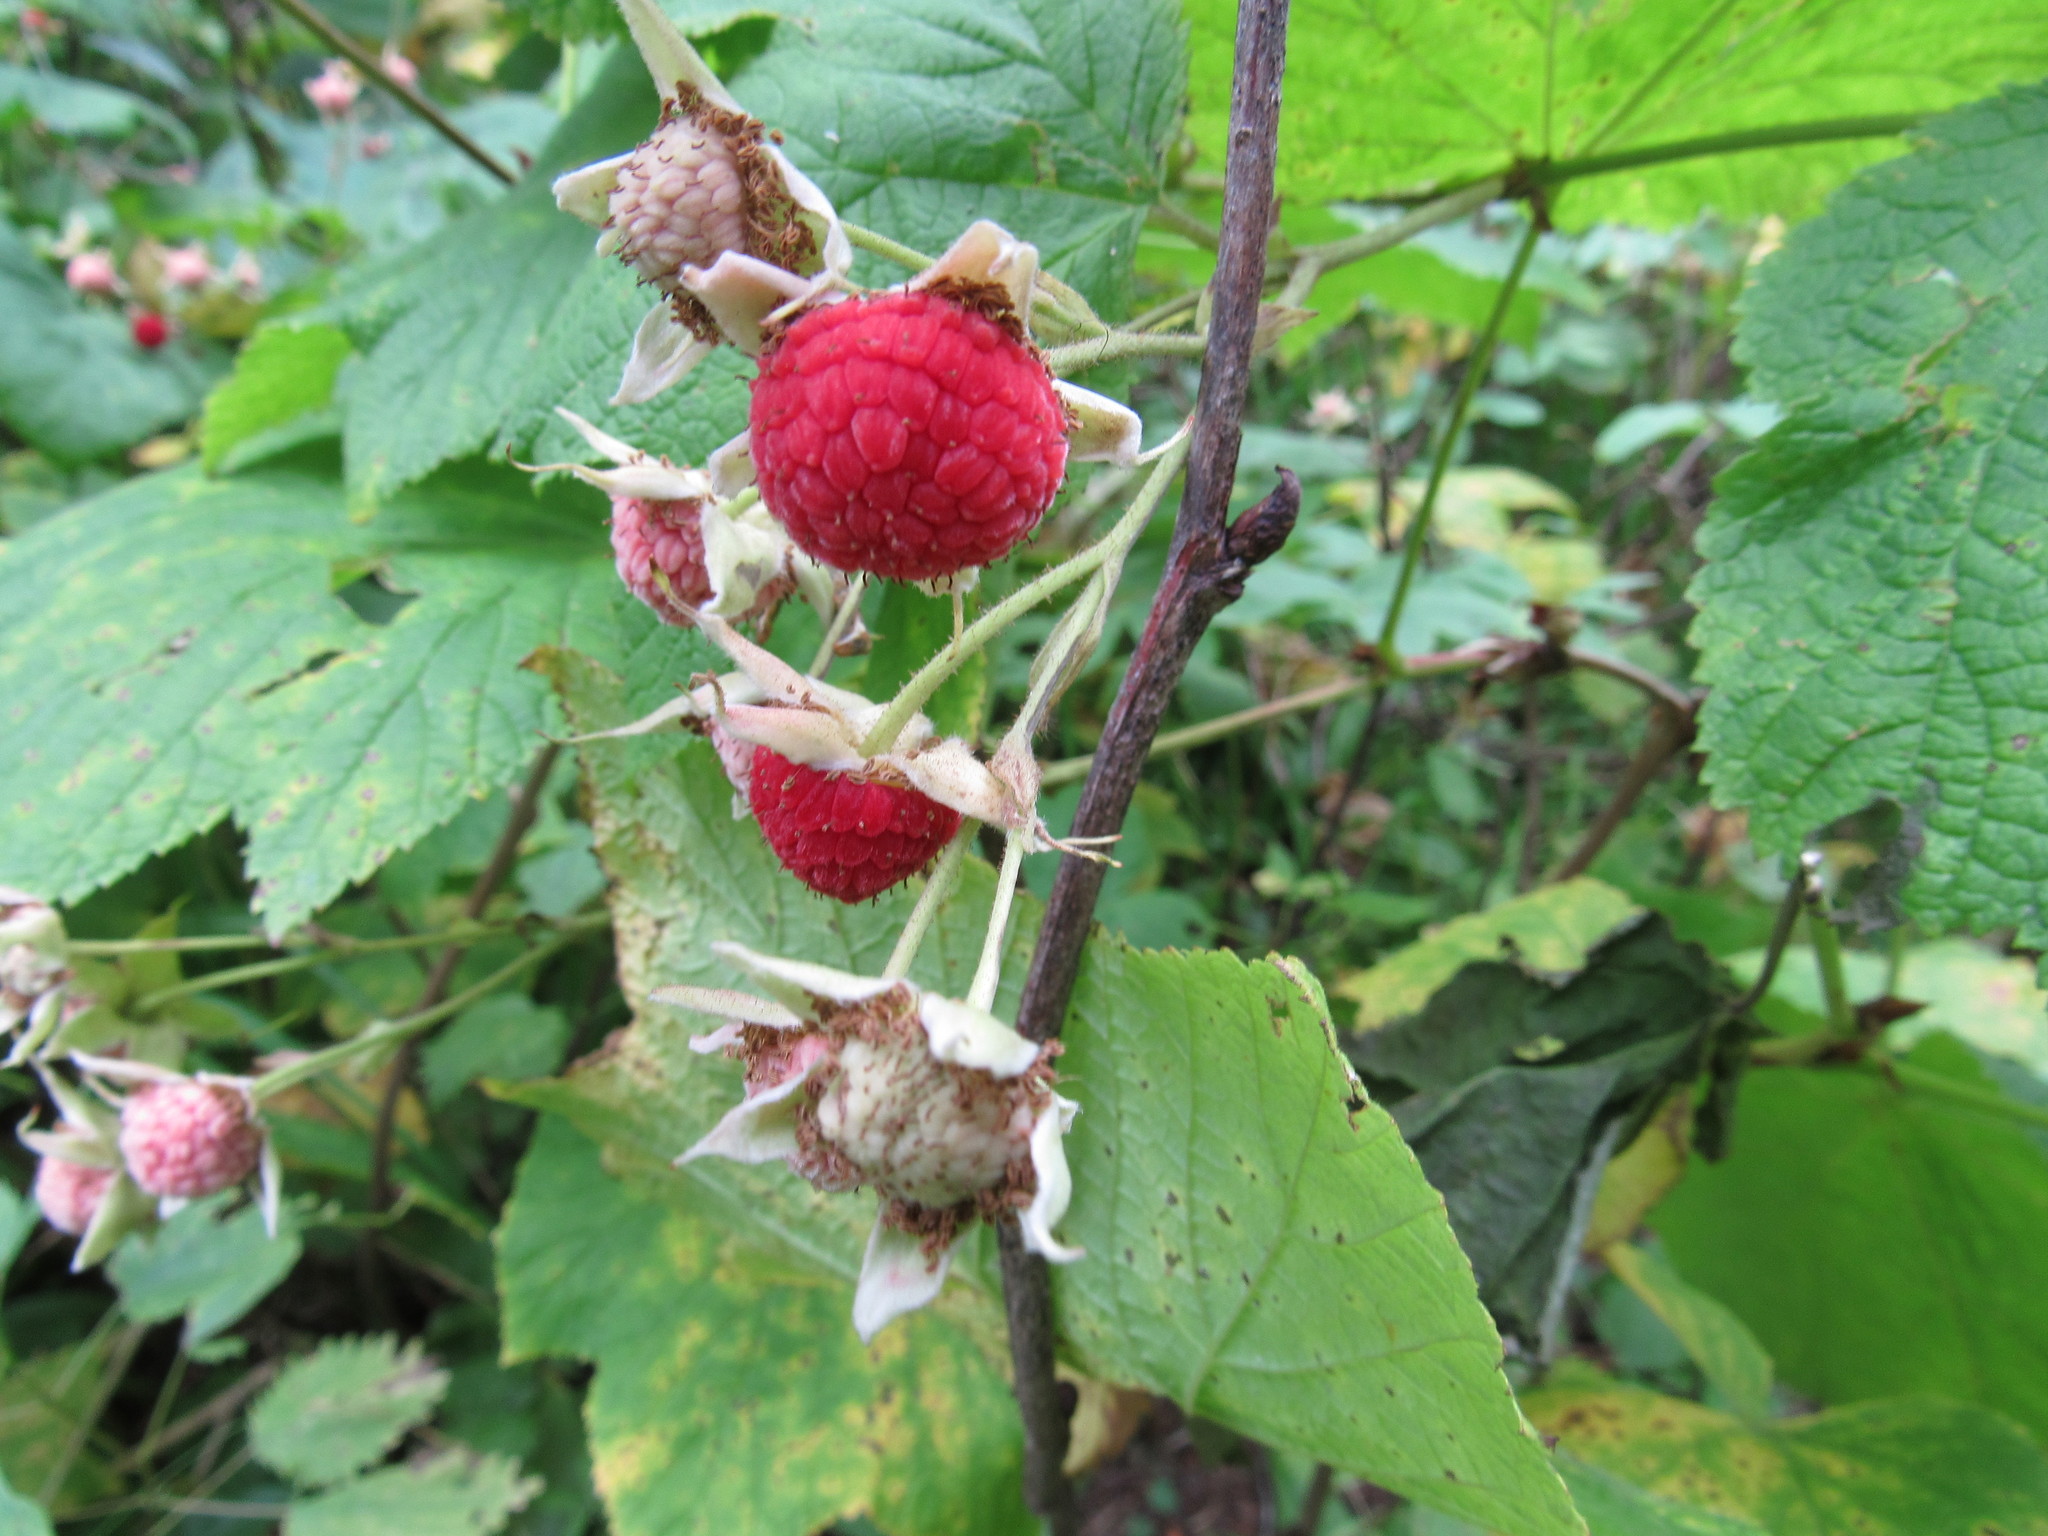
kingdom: Plantae
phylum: Tracheophyta
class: Magnoliopsida
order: Rosales
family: Rosaceae
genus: Rubus
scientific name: Rubus parviflorus
